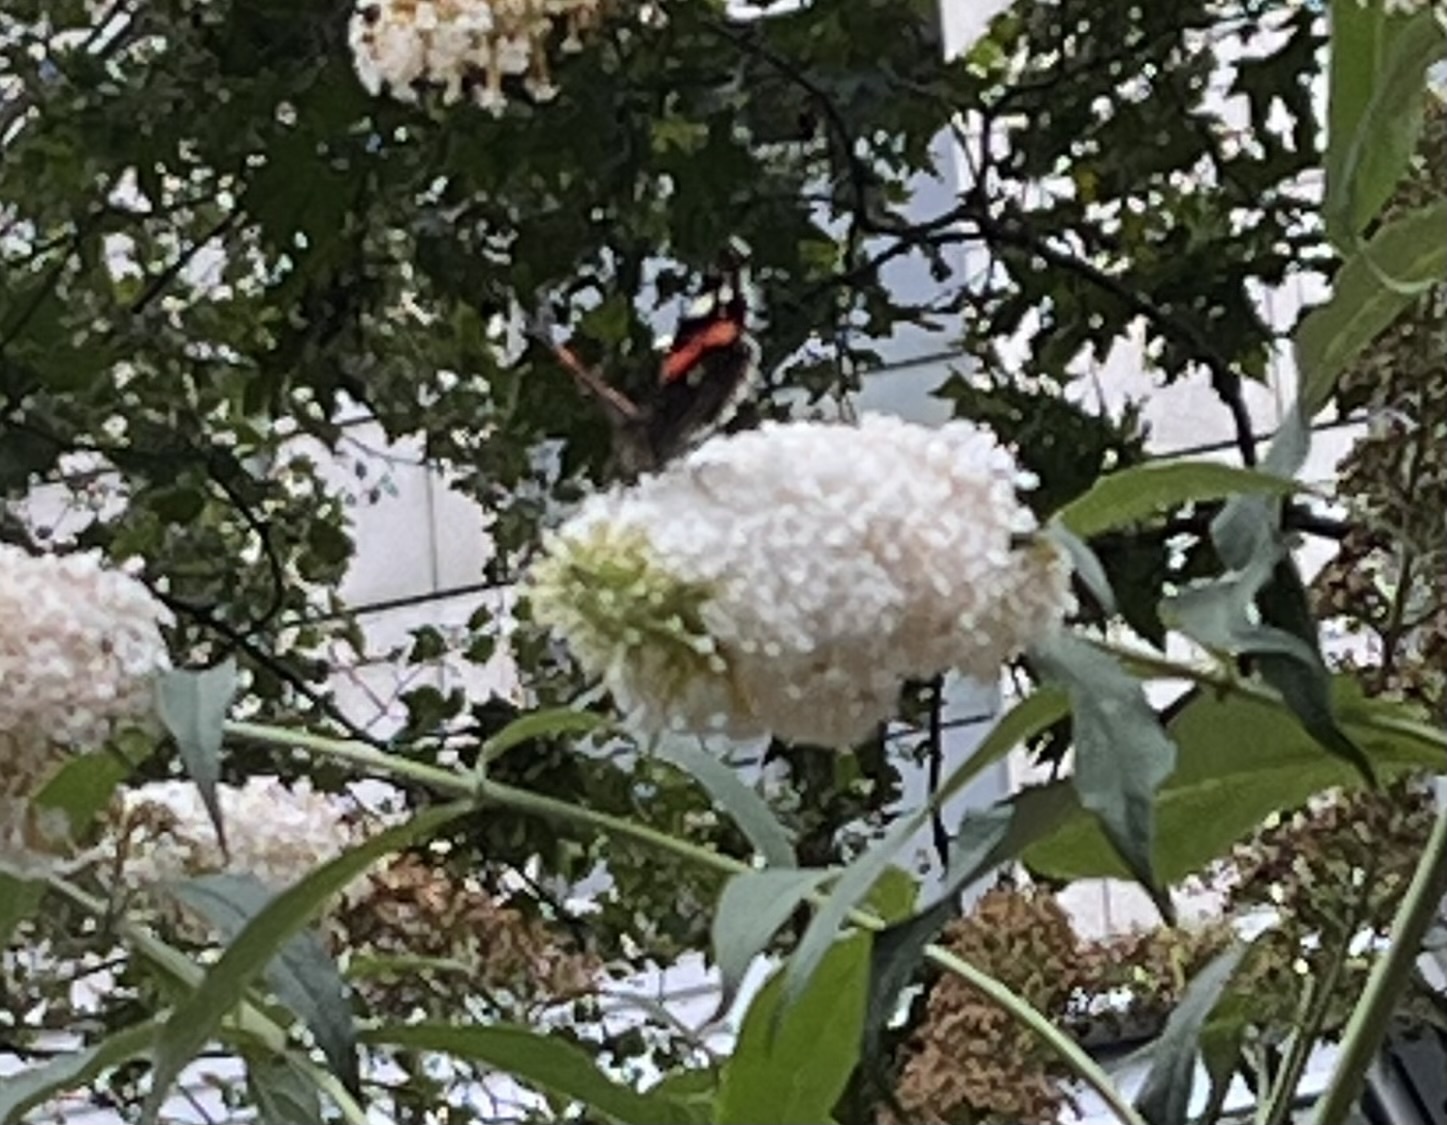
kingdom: Animalia
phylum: Arthropoda
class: Insecta
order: Lepidoptera
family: Nymphalidae
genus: Vanessa
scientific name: Vanessa atalanta
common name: Red admiral
